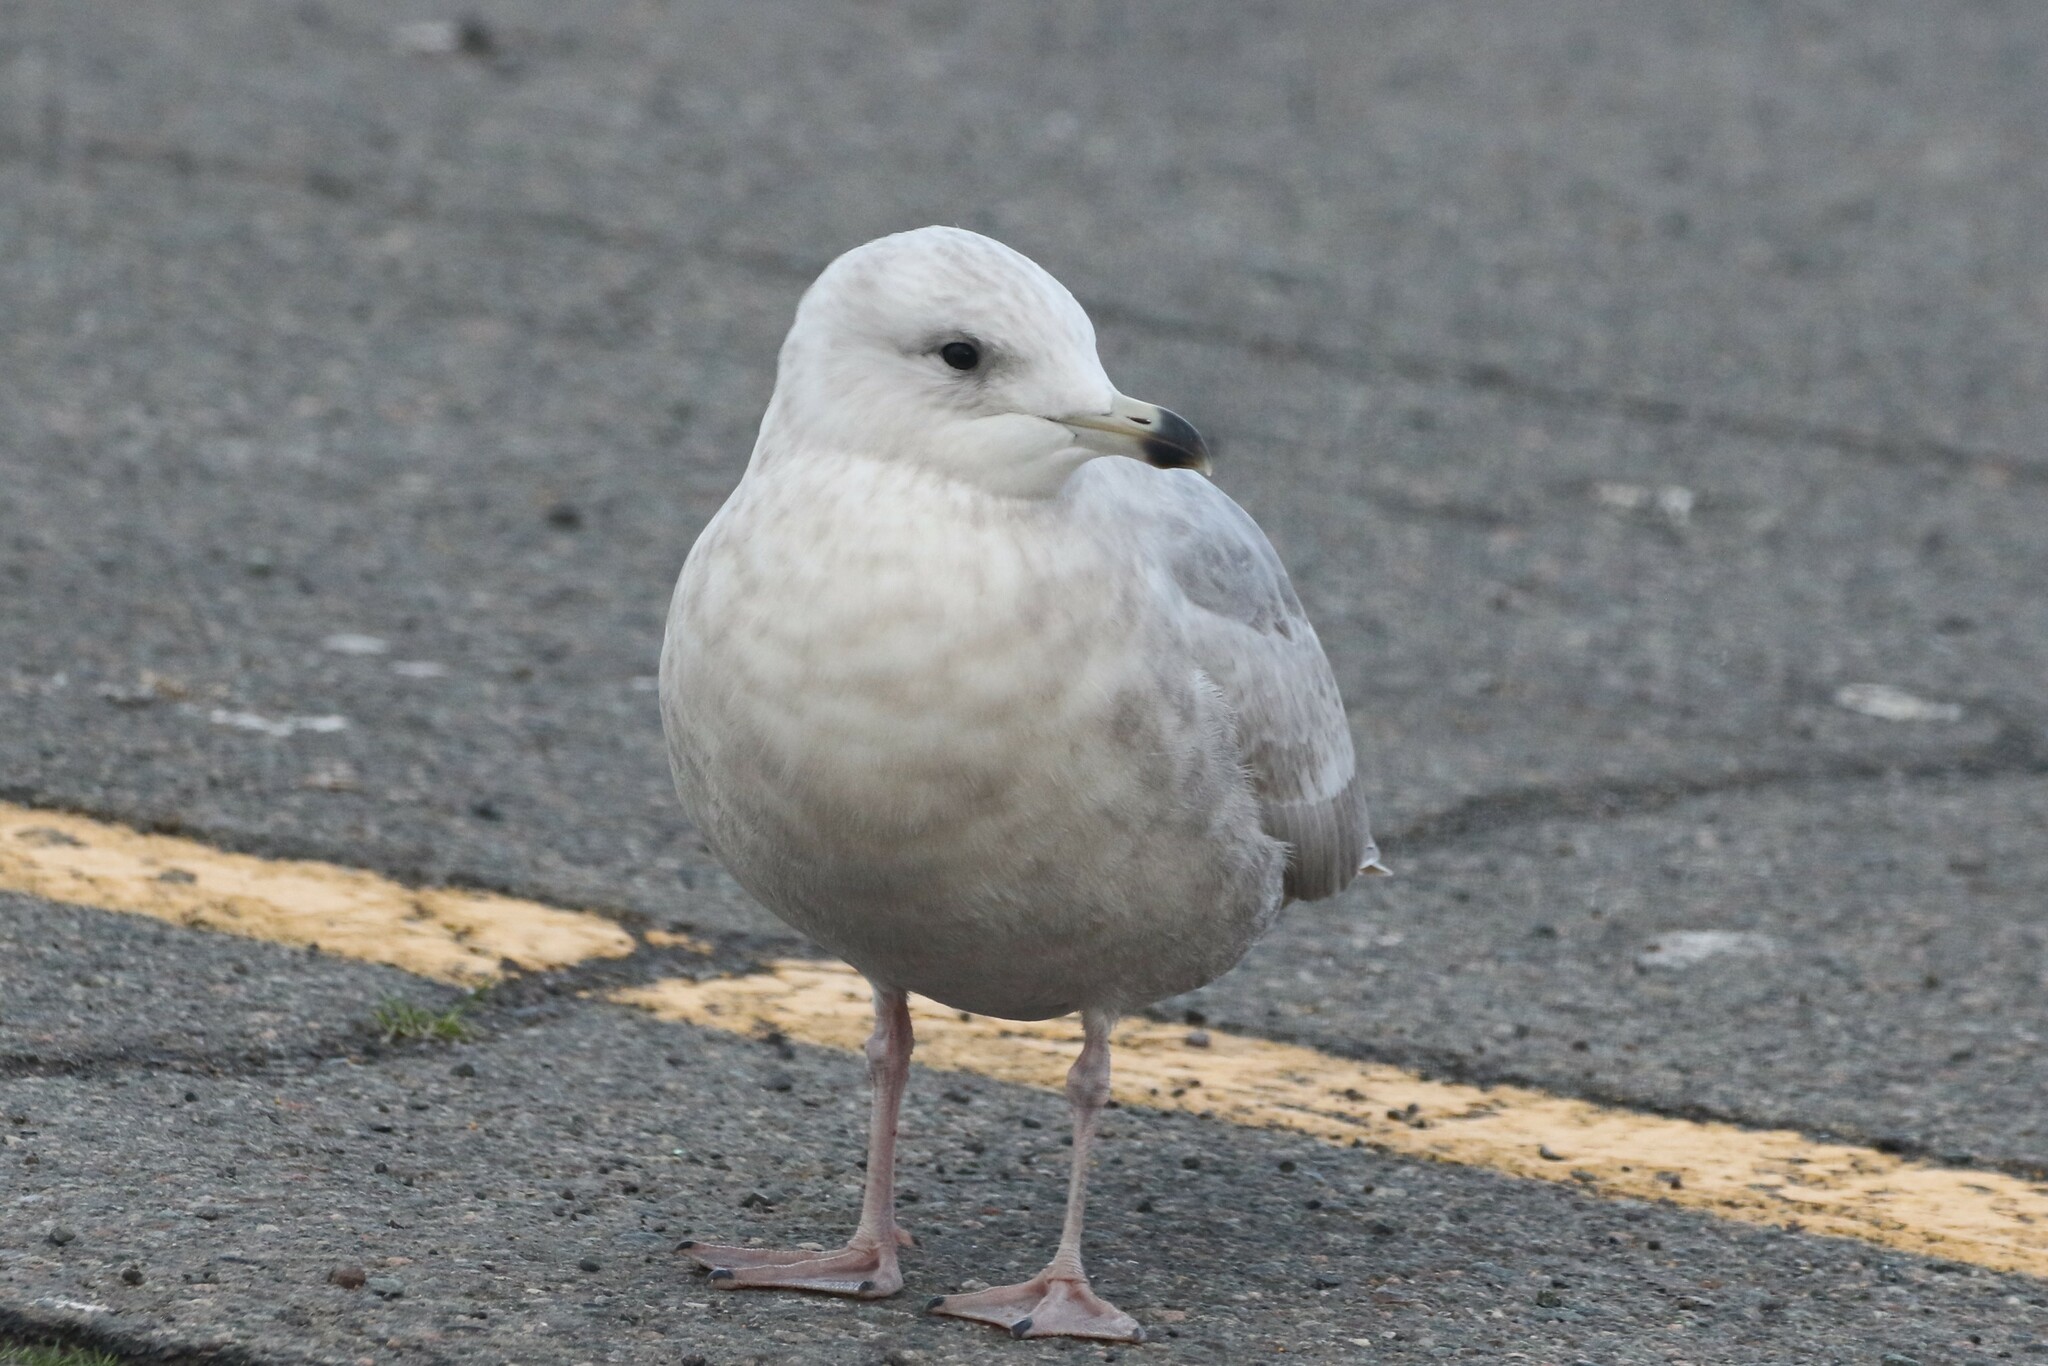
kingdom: Animalia
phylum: Chordata
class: Aves
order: Charadriiformes
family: Laridae
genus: Larus
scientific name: Larus glaucoides
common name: Iceland gull
